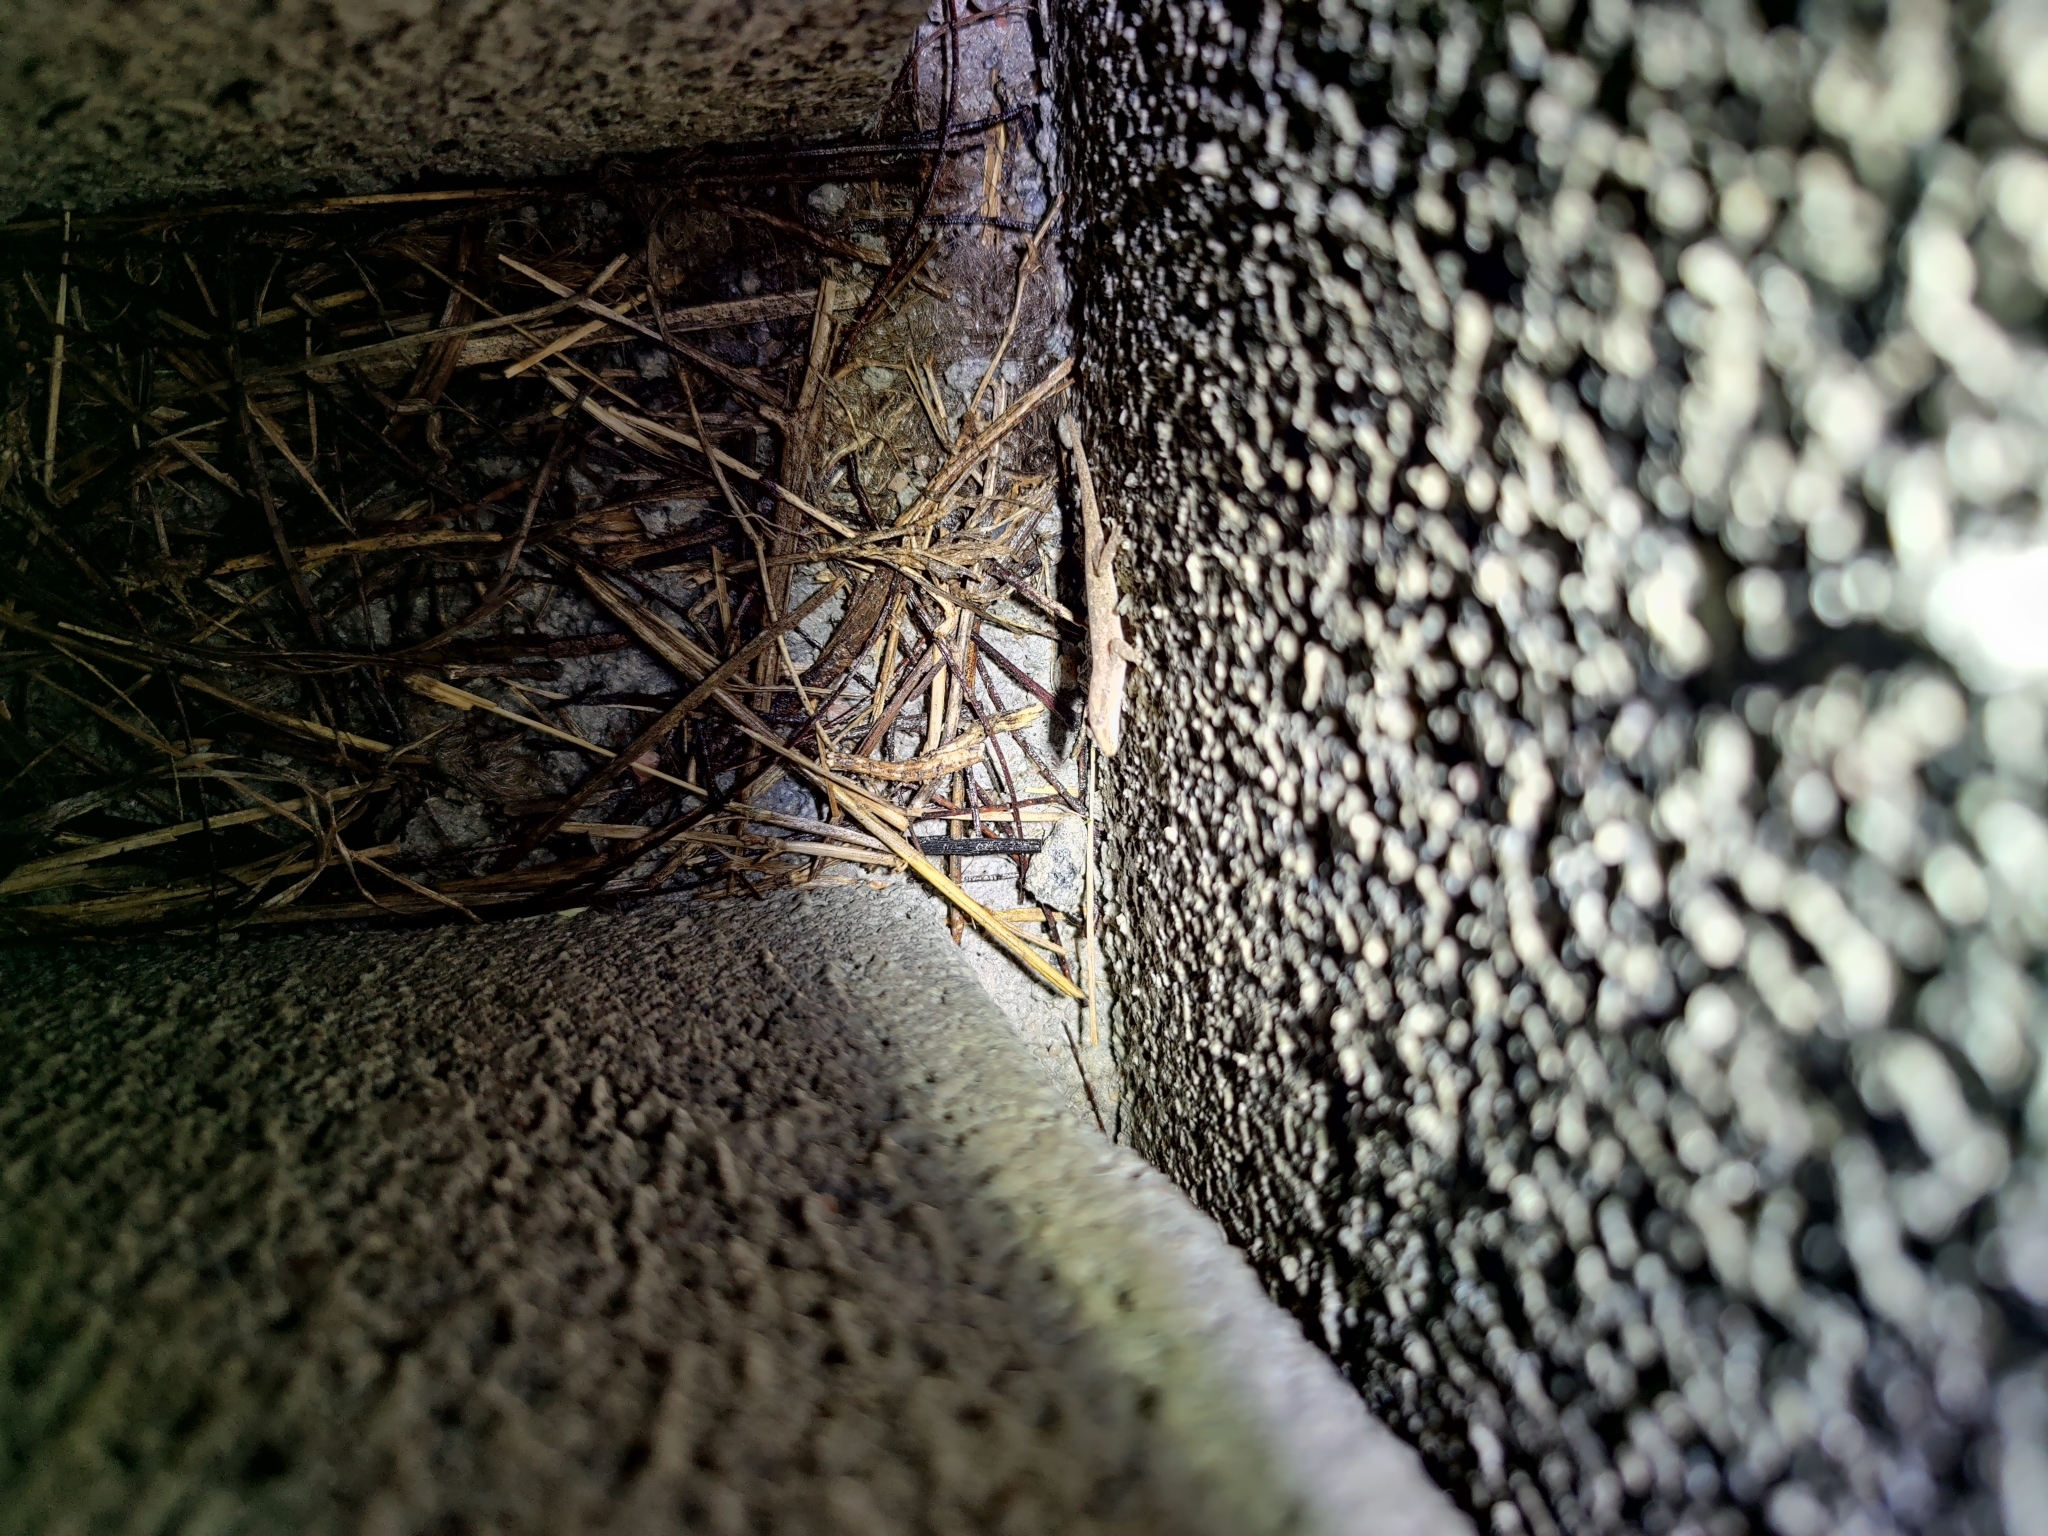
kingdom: Animalia
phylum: Chordata
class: Squamata
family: Gekkonidae
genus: Hemidactylus
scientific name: Hemidactylus frenatus
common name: Common house gecko
